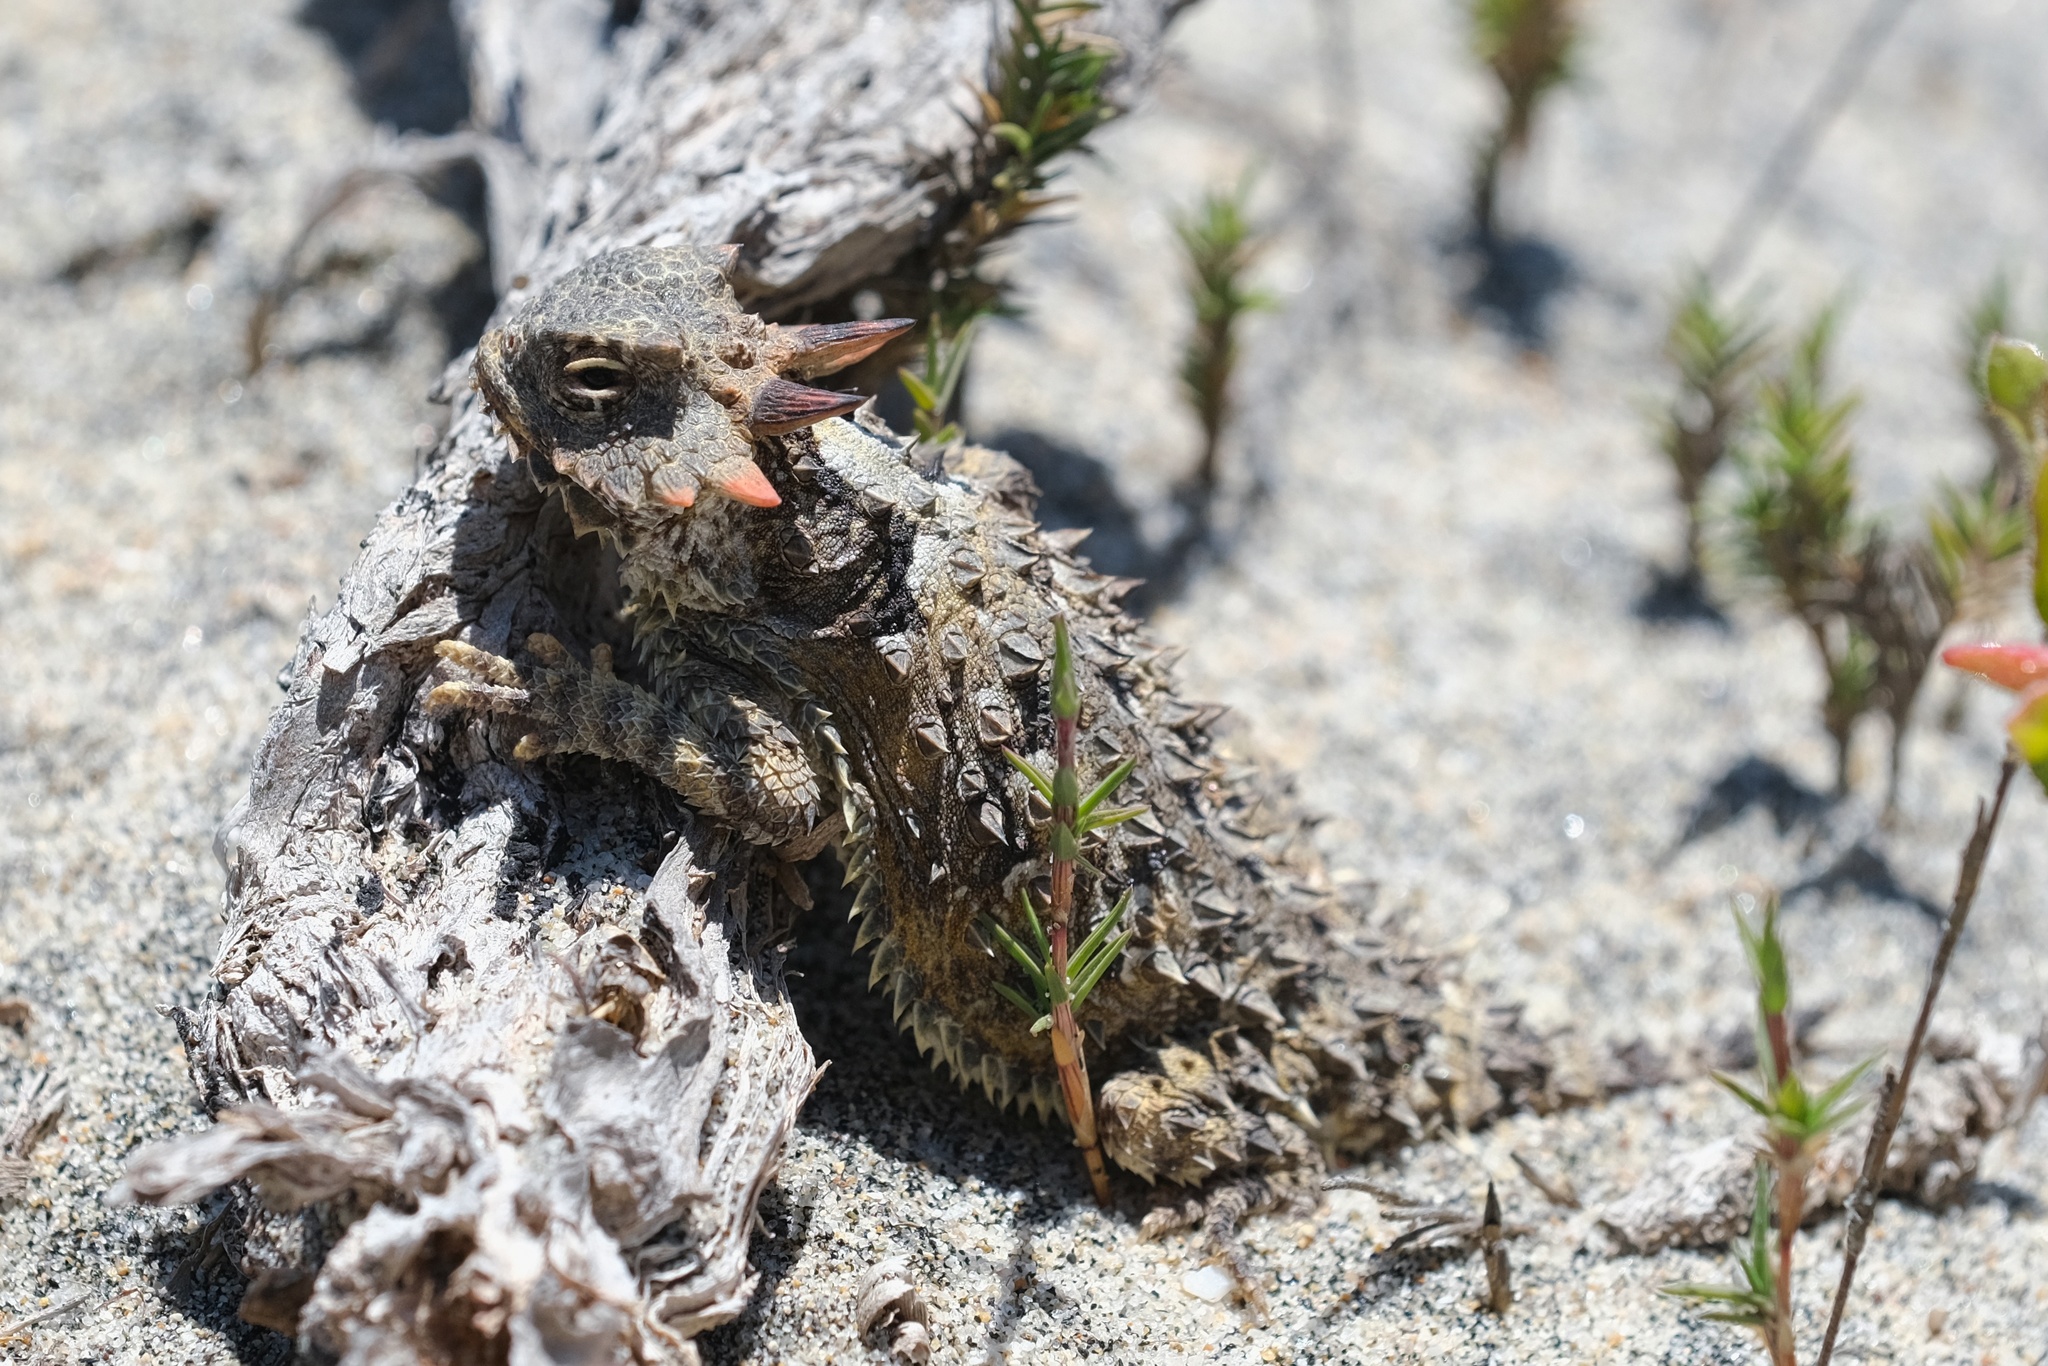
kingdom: Animalia
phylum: Chordata
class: Squamata
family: Phrynosomatidae
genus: Phrynosoma
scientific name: Phrynosoma blainvillii
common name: San diego horned lizard
